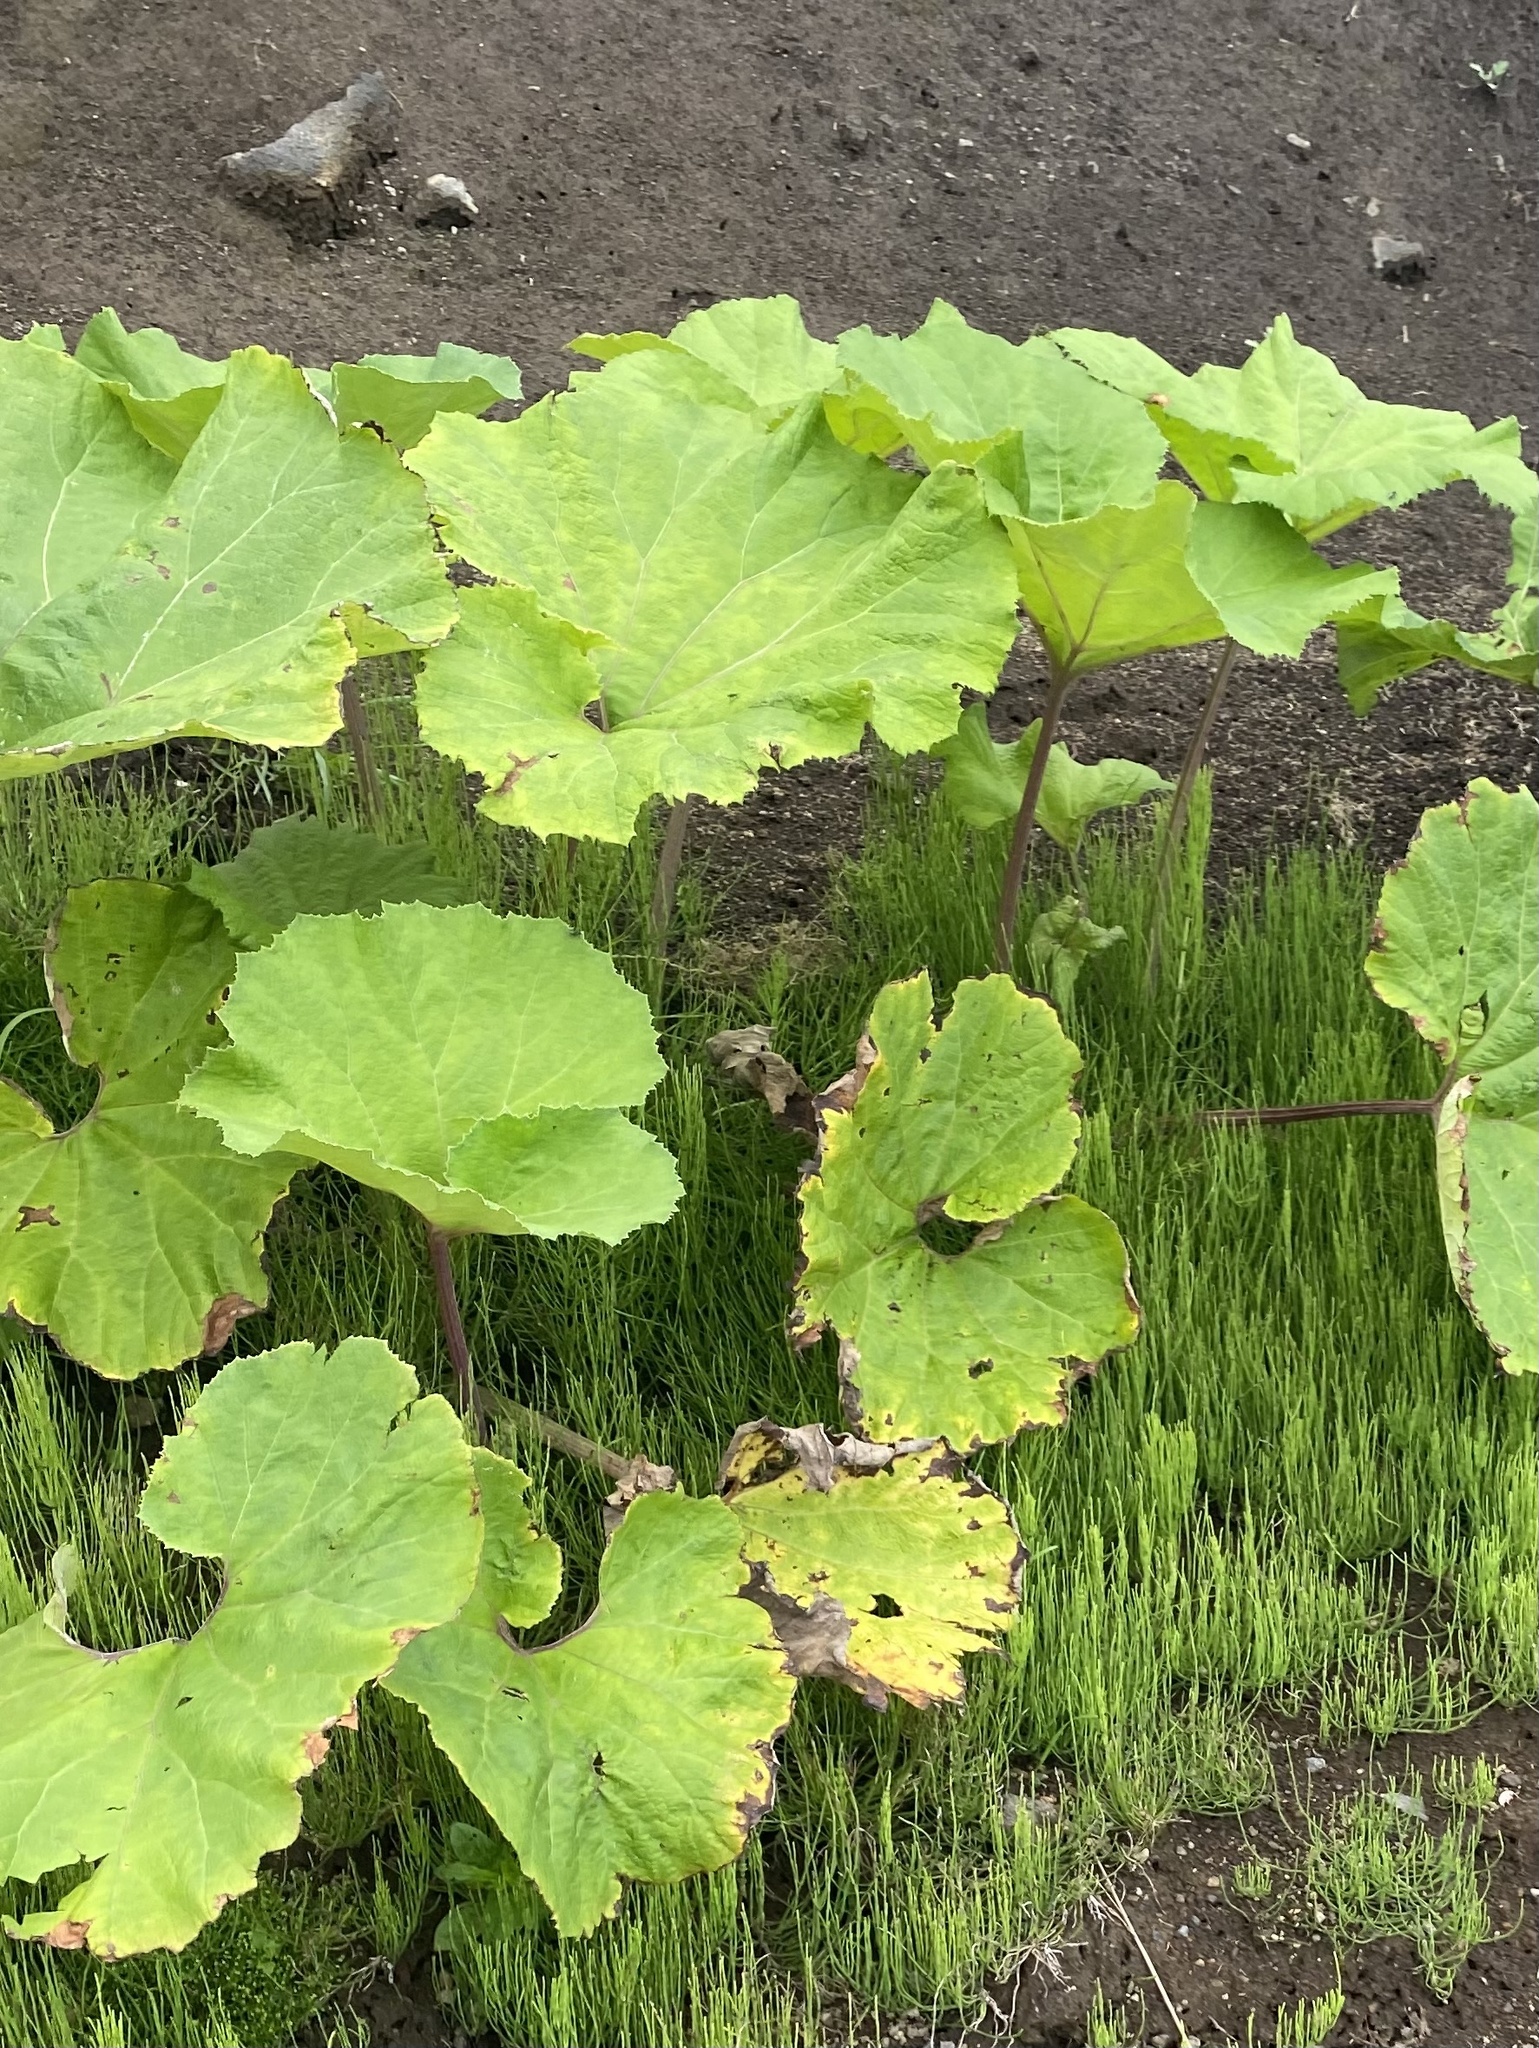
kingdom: Plantae
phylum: Tracheophyta
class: Magnoliopsida
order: Asterales
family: Asteraceae
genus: Petasites
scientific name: Petasites japonicus
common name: Giant butterbur
